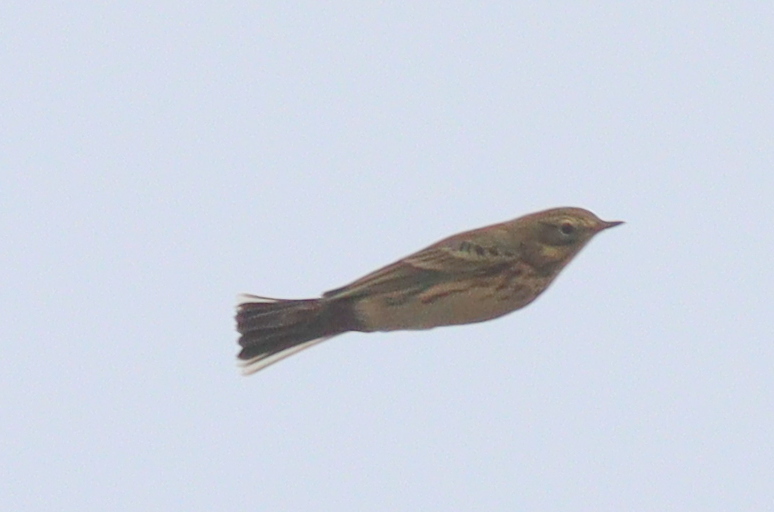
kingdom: Animalia
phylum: Chordata
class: Aves
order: Passeriformes
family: Motacillidae
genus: Anthus
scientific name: Anthus pratensis
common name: Meadow pipit
